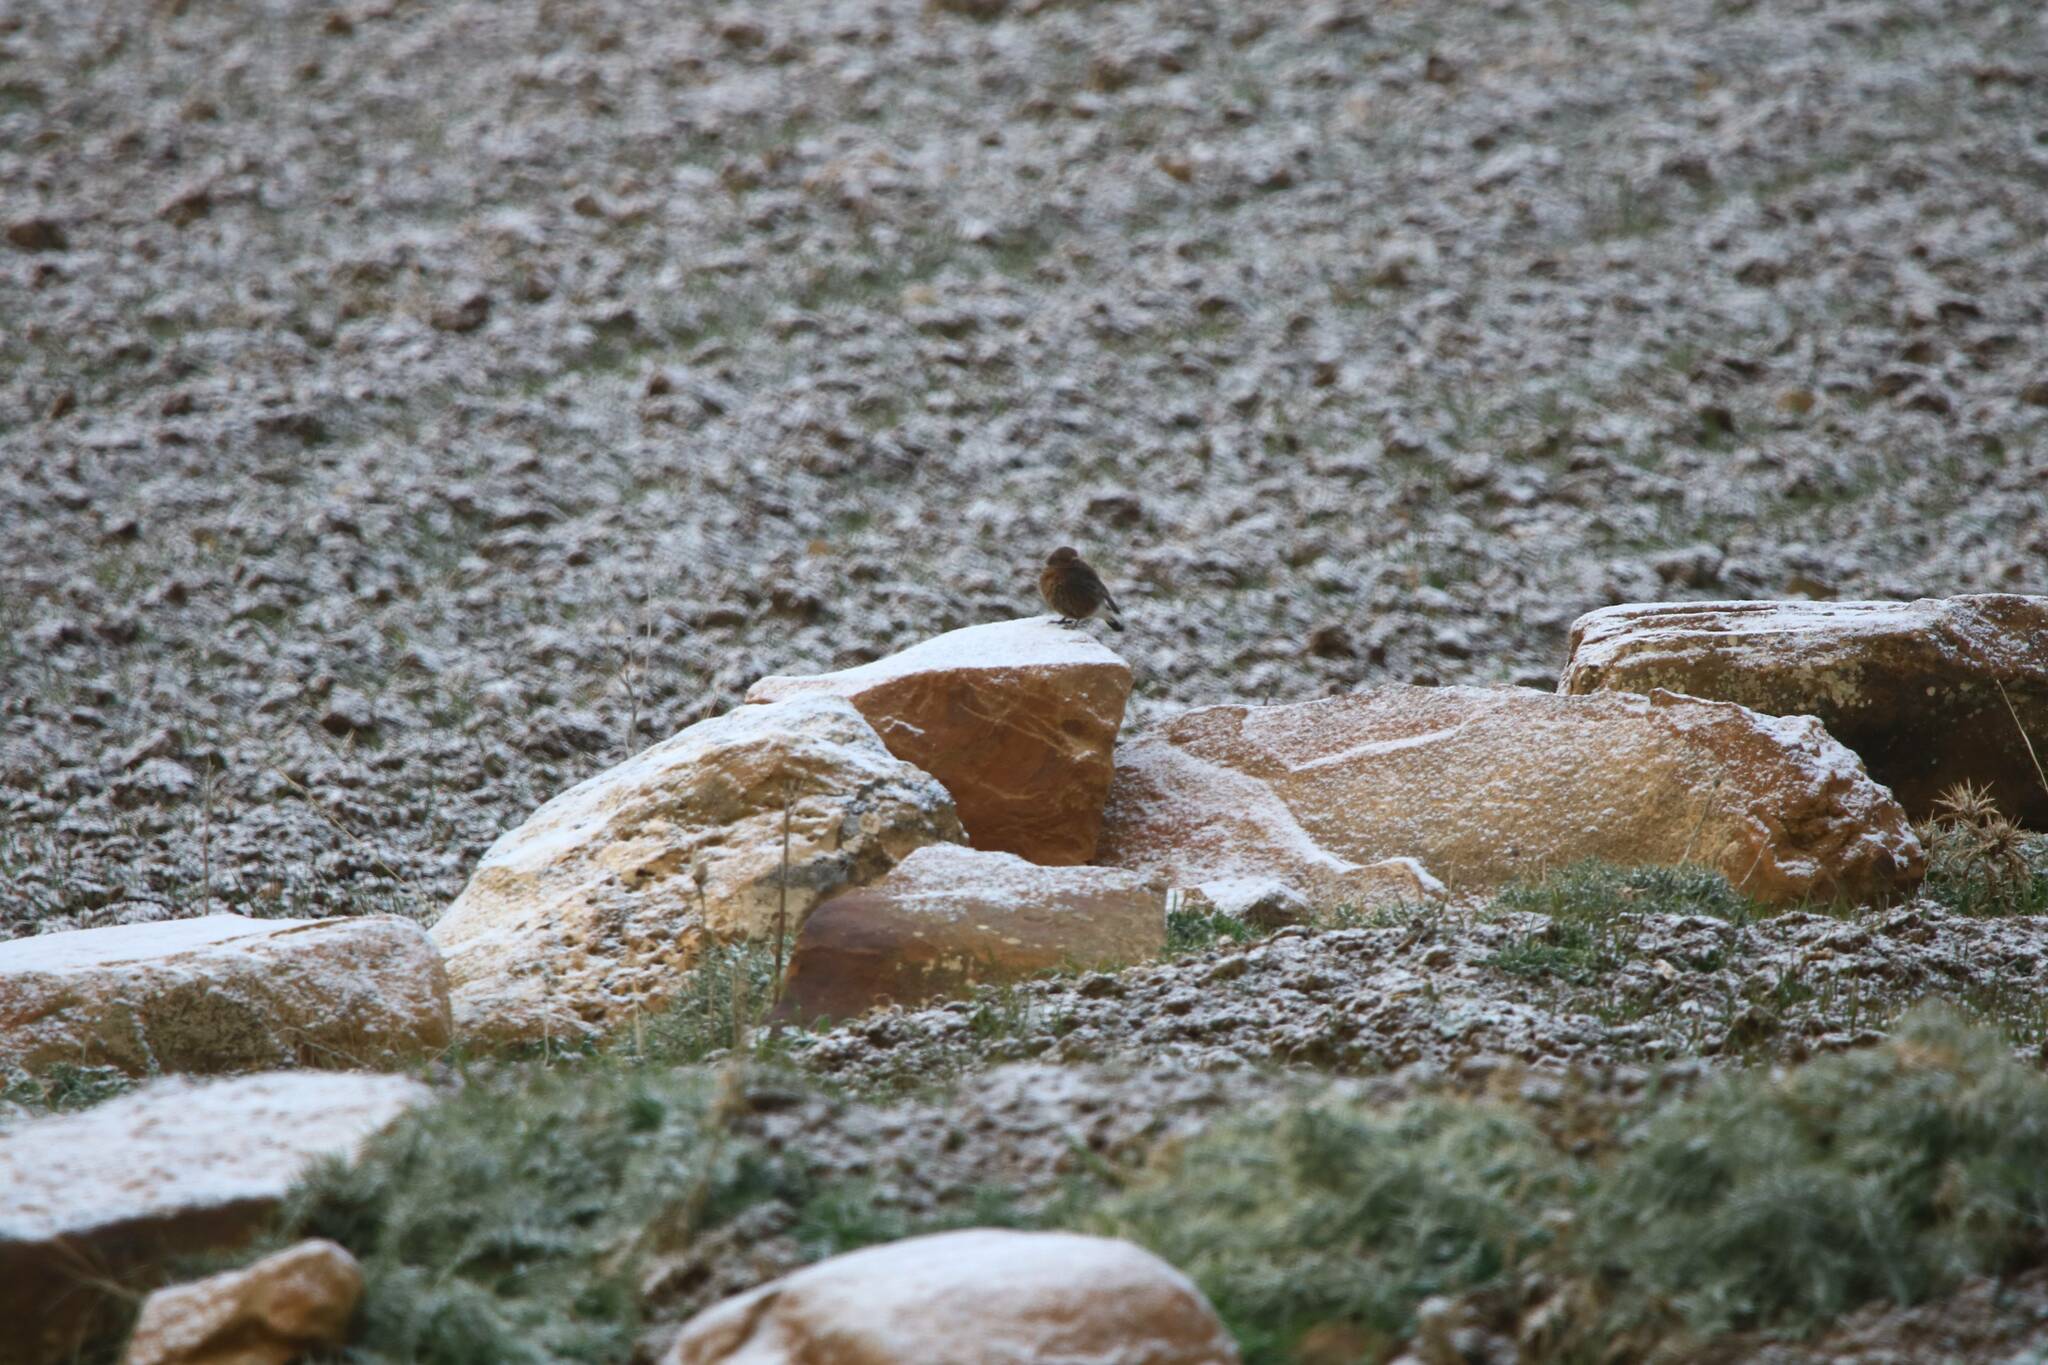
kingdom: Animalia
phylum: Chordata
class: Aves
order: Passeriformes
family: Muscicapidae
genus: Oenanthe
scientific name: Oenanthe leucura
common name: Black wheatear
